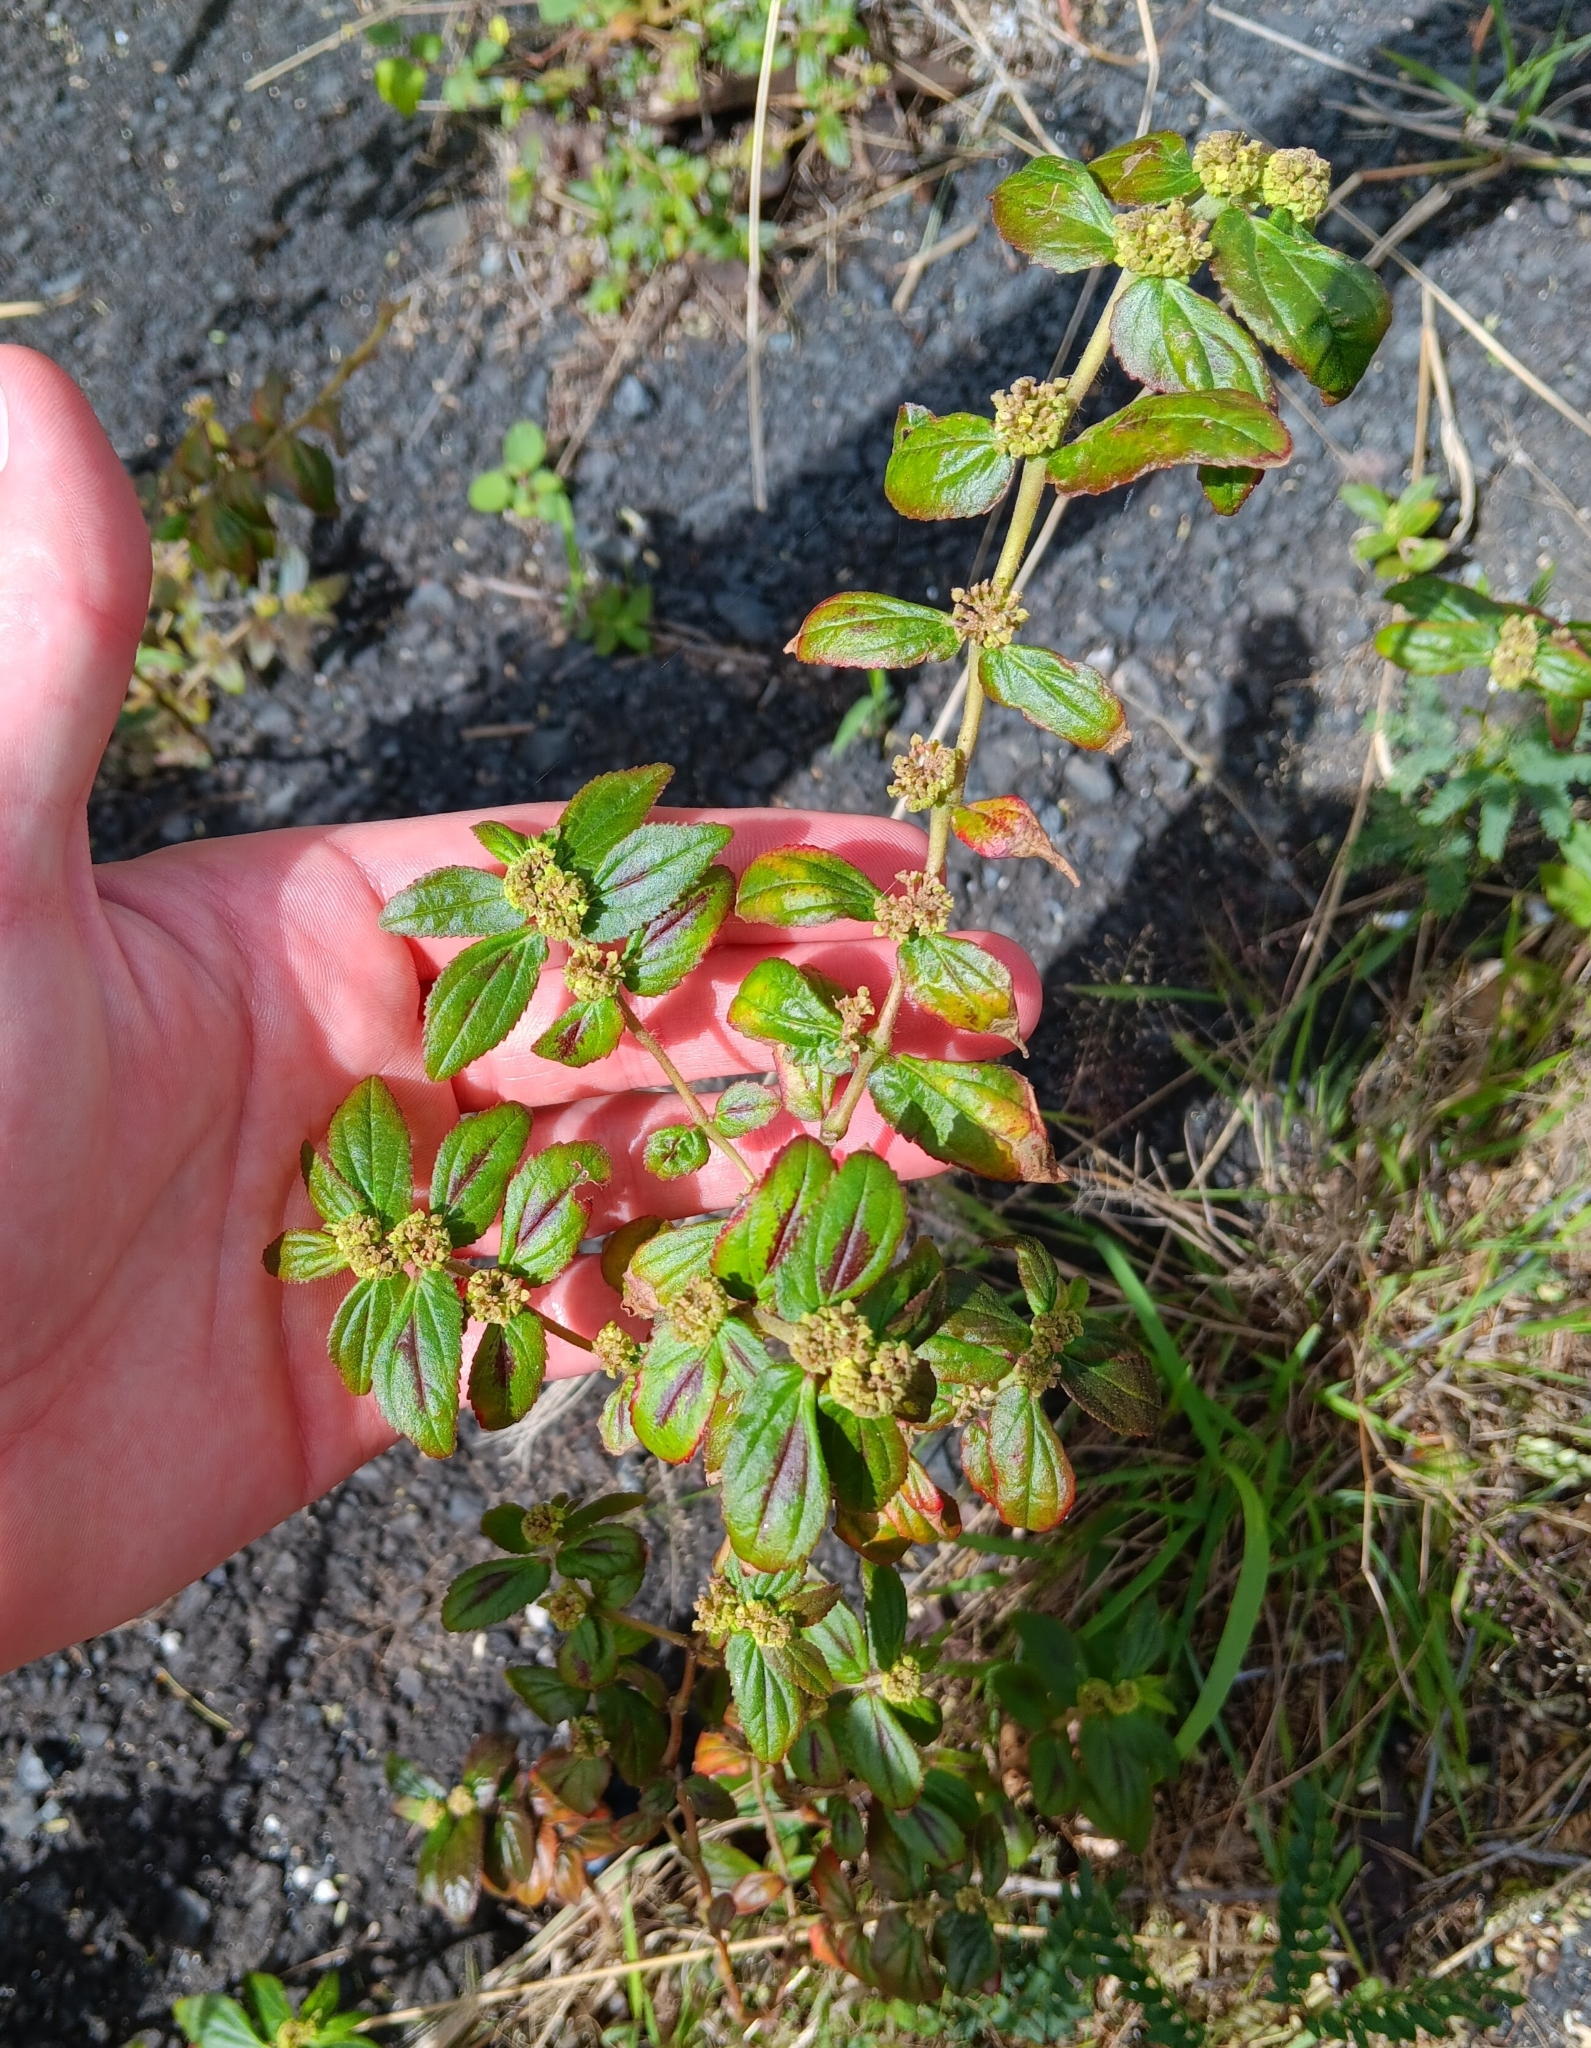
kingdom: Plantae
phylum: Tracheophyta
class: Magnoliopsida
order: Malpighiales
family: Euphorbiaceae
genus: Euphorbia
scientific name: Euphorbia hirta
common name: Pillpod sandmat
